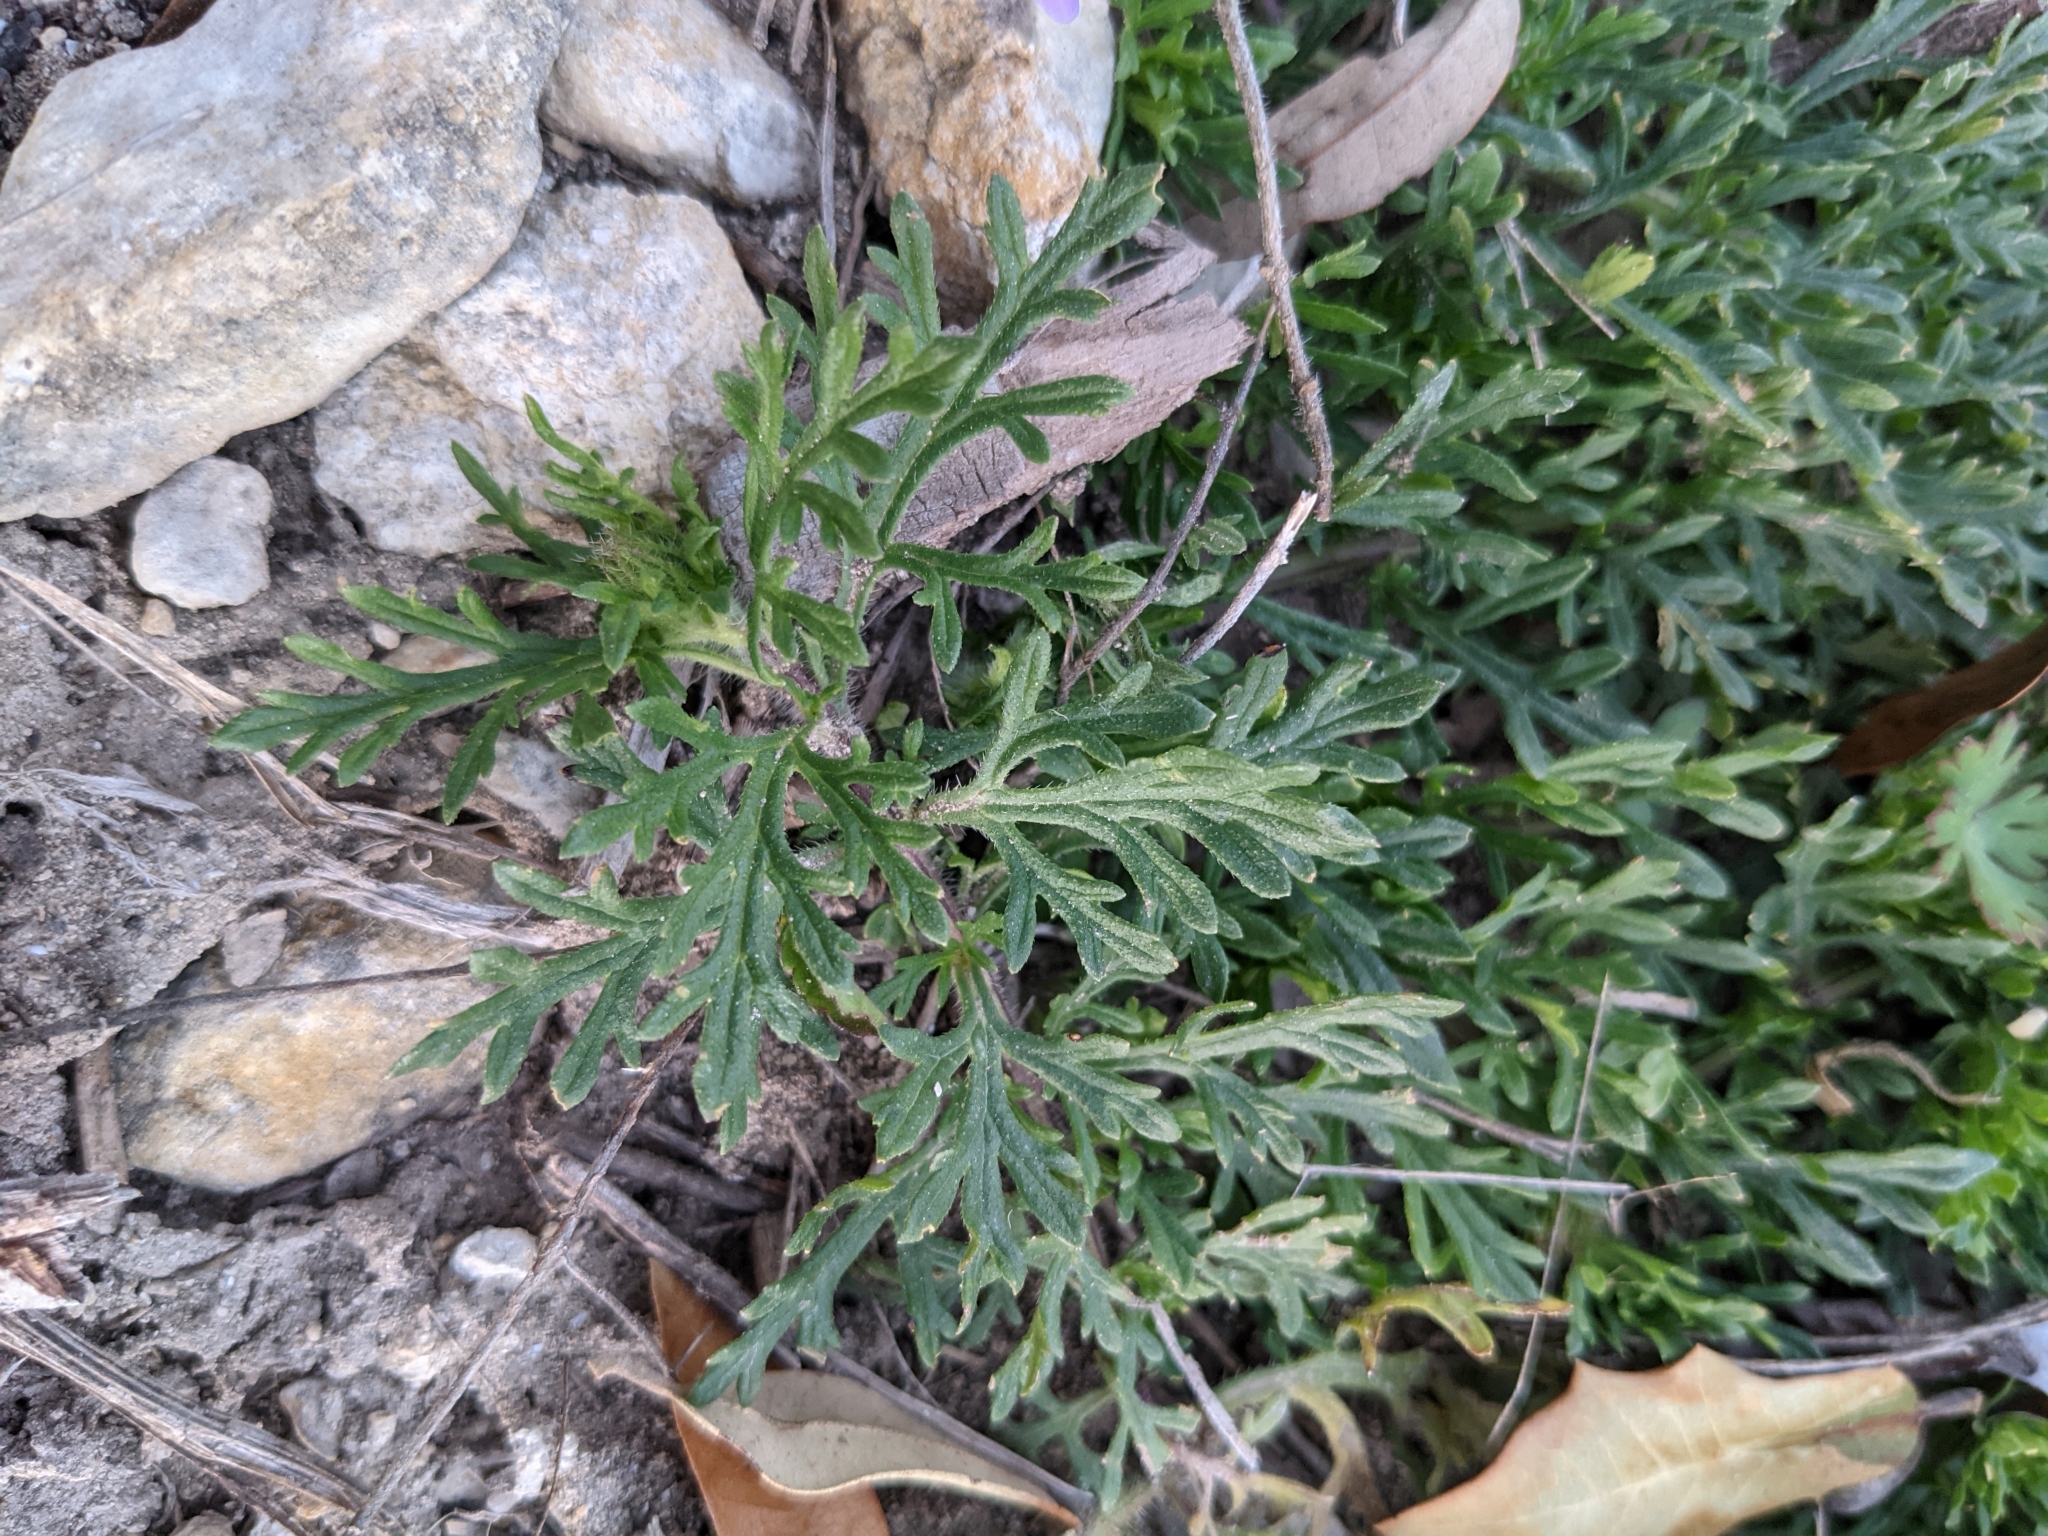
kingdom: Plantae
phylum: Tracheophyta
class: Magnoliopsida
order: Lamiales
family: Verbenaceae
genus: Verbena
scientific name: Verbena bipinnatifida
